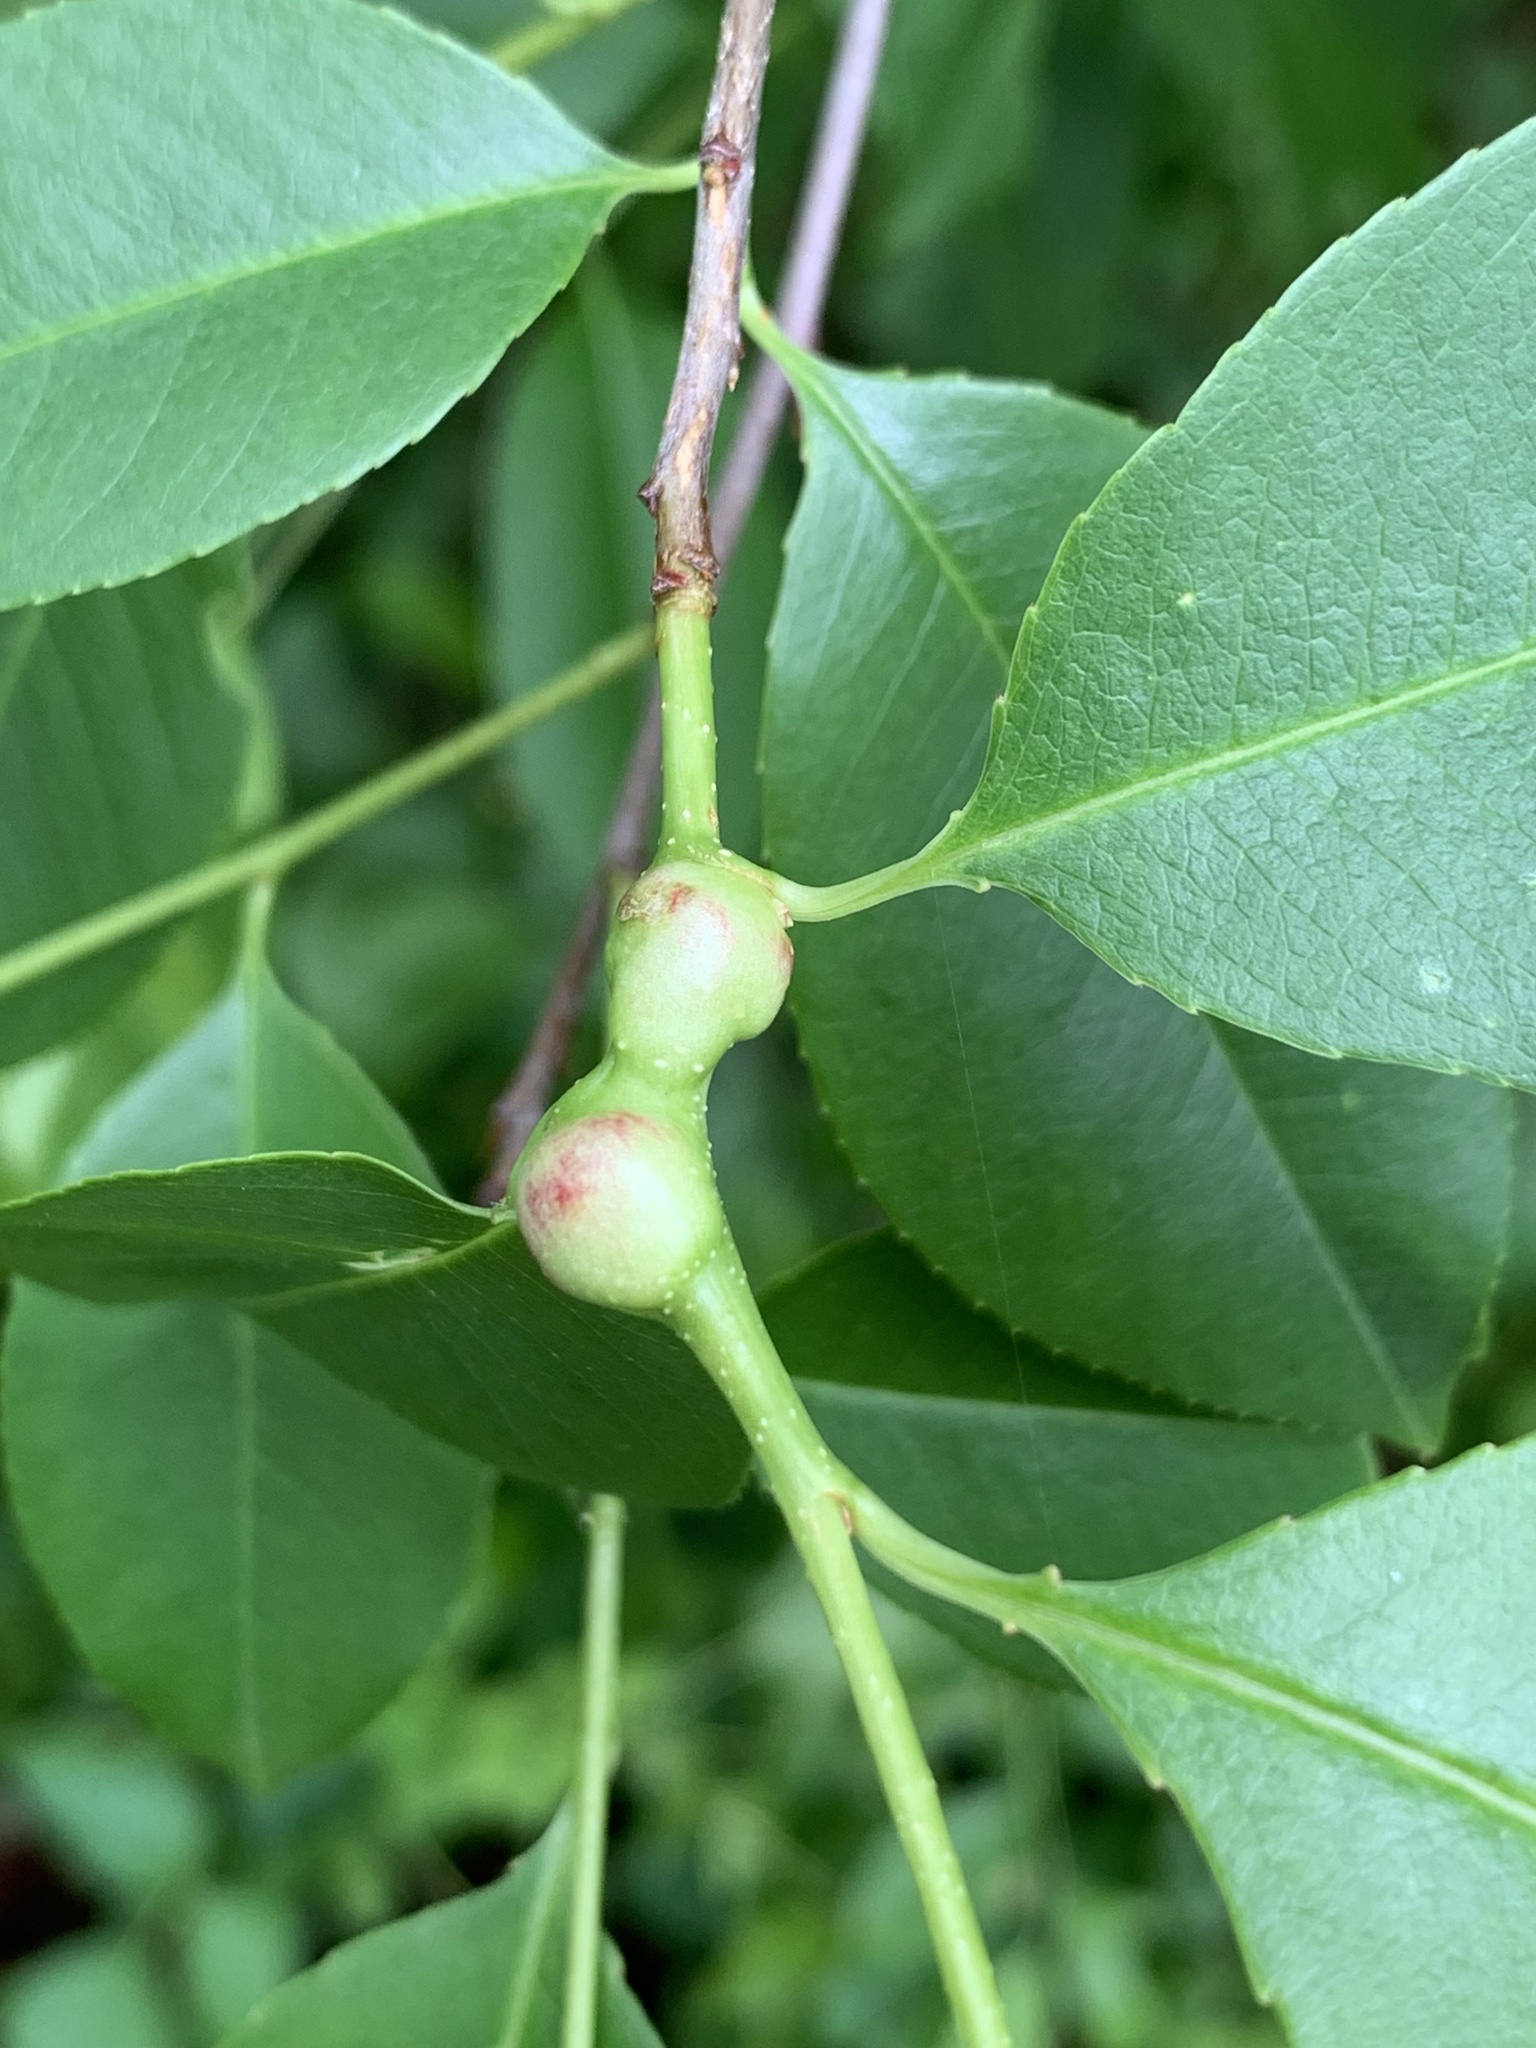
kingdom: Animalia
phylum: Arthropoda
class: Insecta
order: Diptera
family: Cecidomyiidae
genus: Contarinia
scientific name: Contarinia cerasiserotinae
